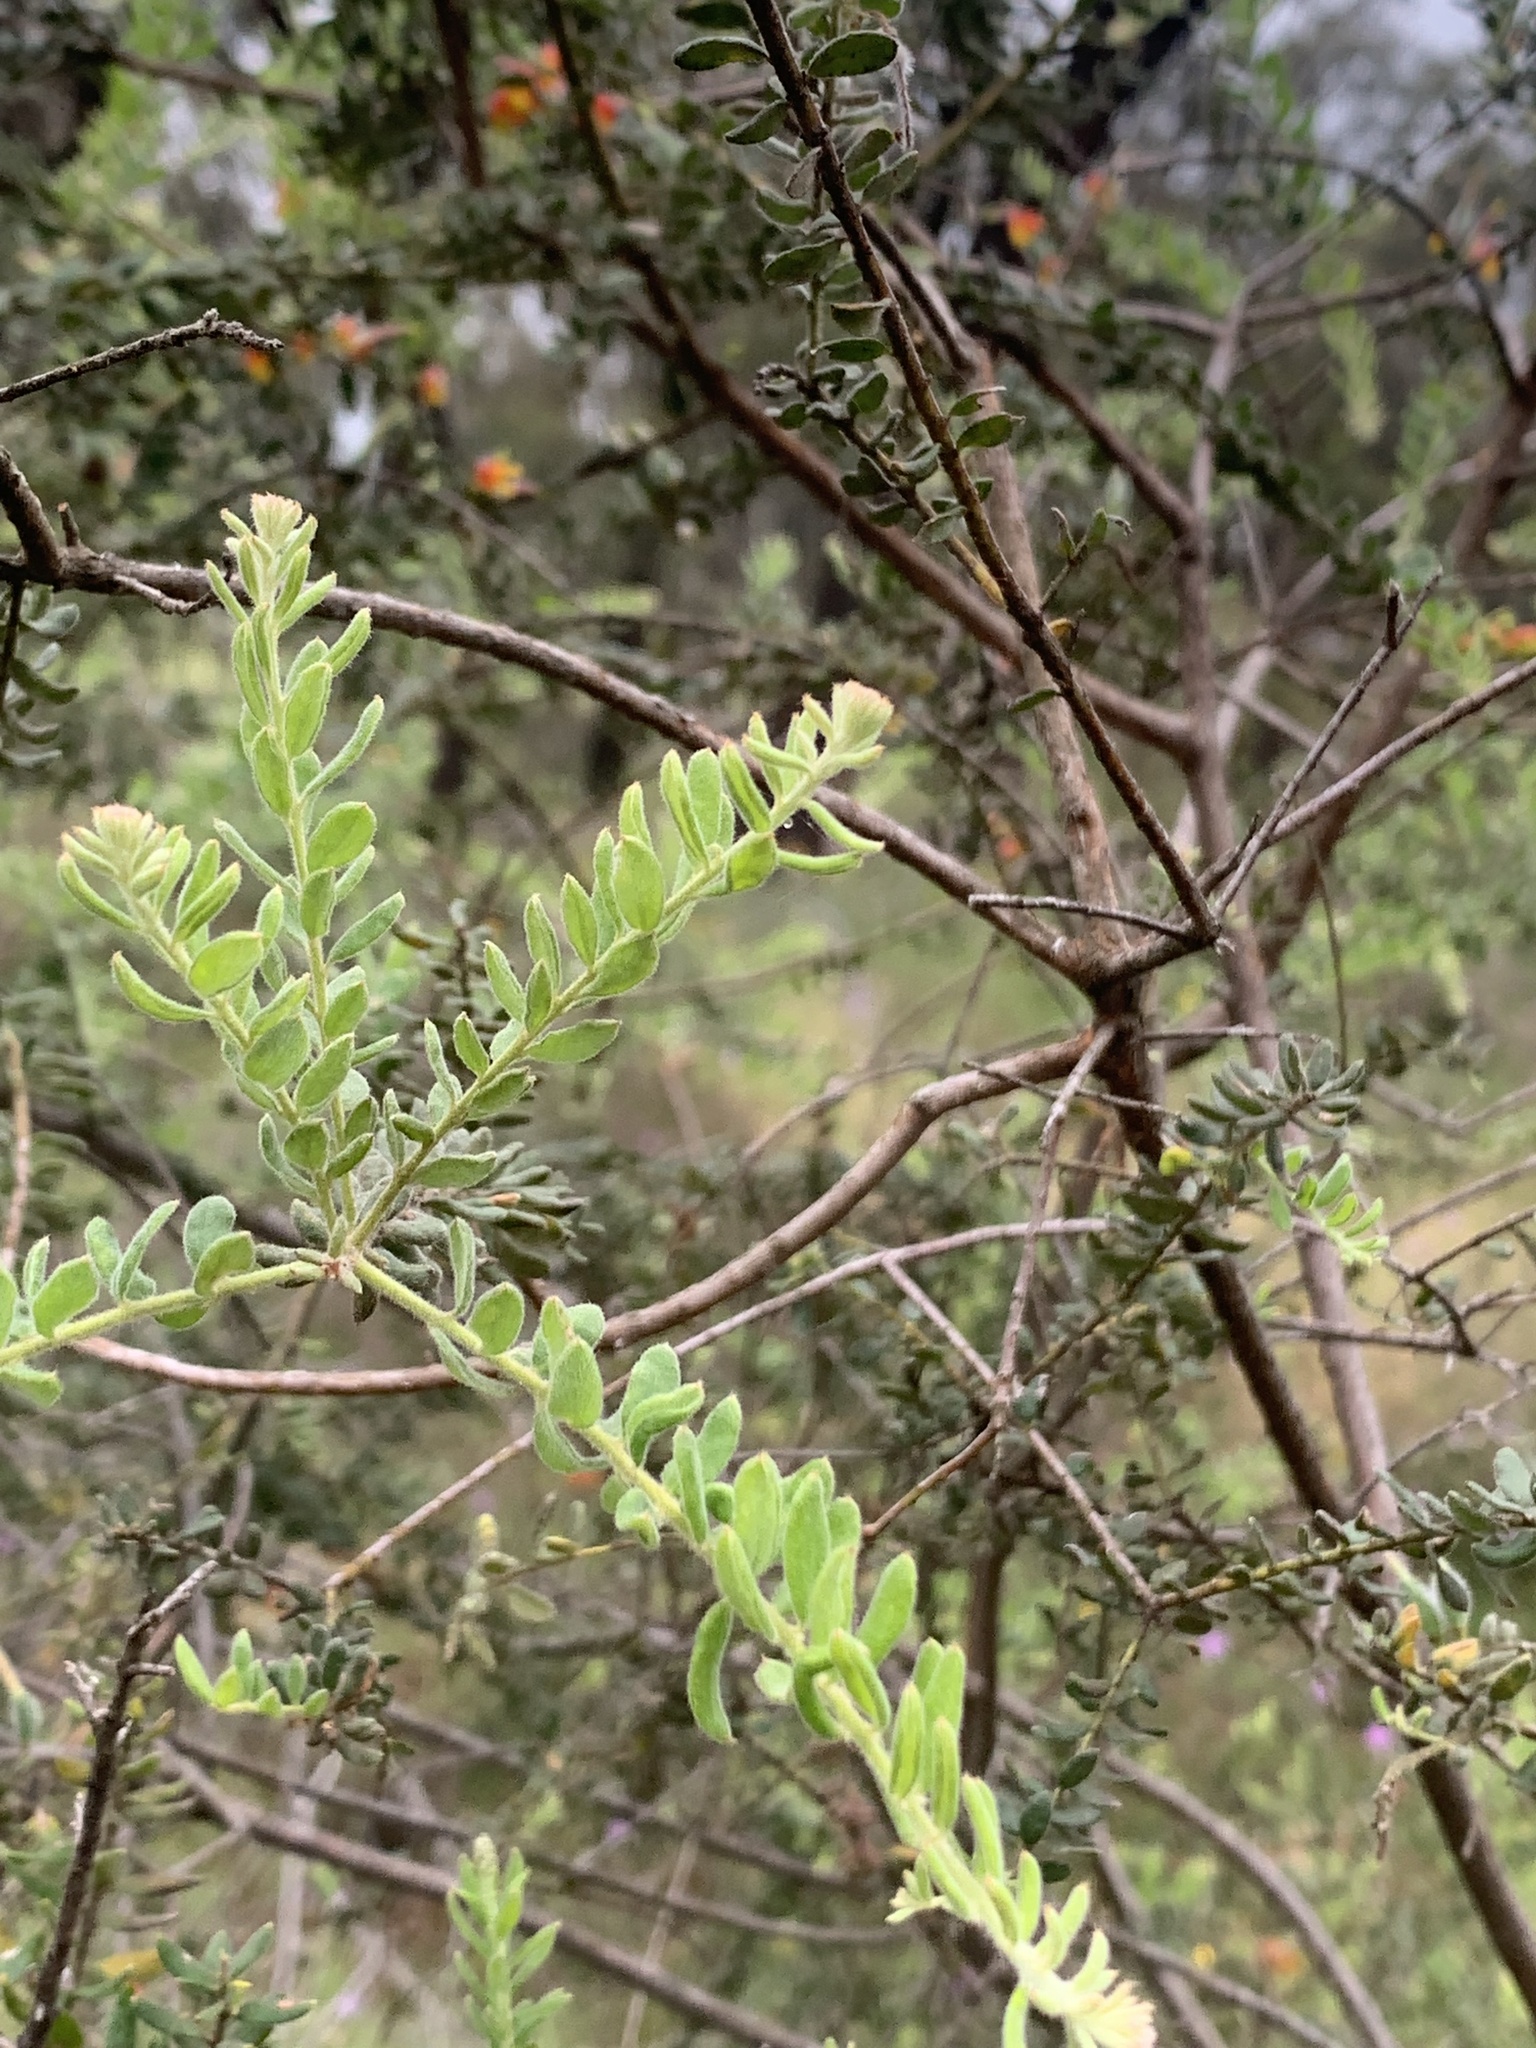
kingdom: Plantae
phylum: Tracheophyta
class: Magnoliopsida
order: Proteales
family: Proteaceae
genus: Grevillea
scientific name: Grevillea alpina
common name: Catclaws grevillea
